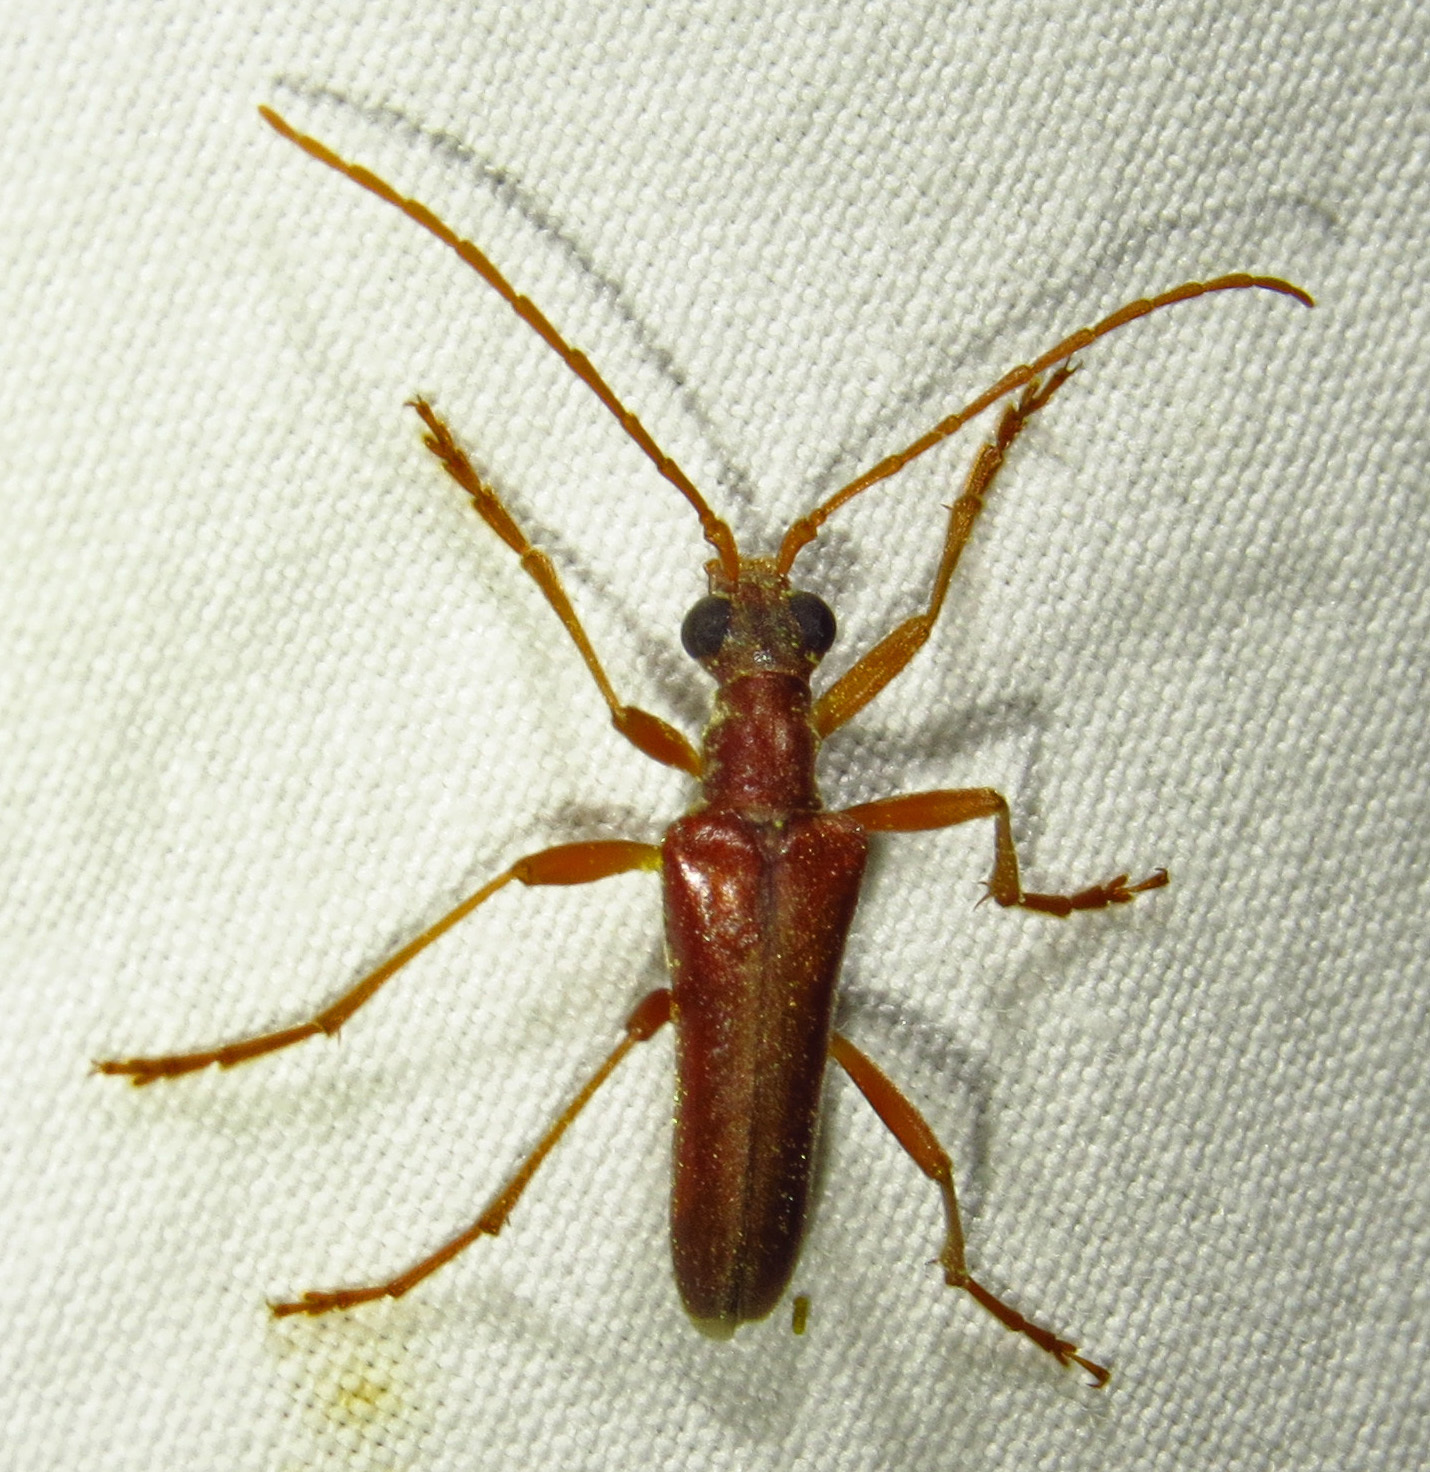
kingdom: Animalia
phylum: Arthropoda
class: Insecta
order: Coleoptera
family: Cerambycidae
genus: Stenocorus
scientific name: Stenocorus cinnamopterus
